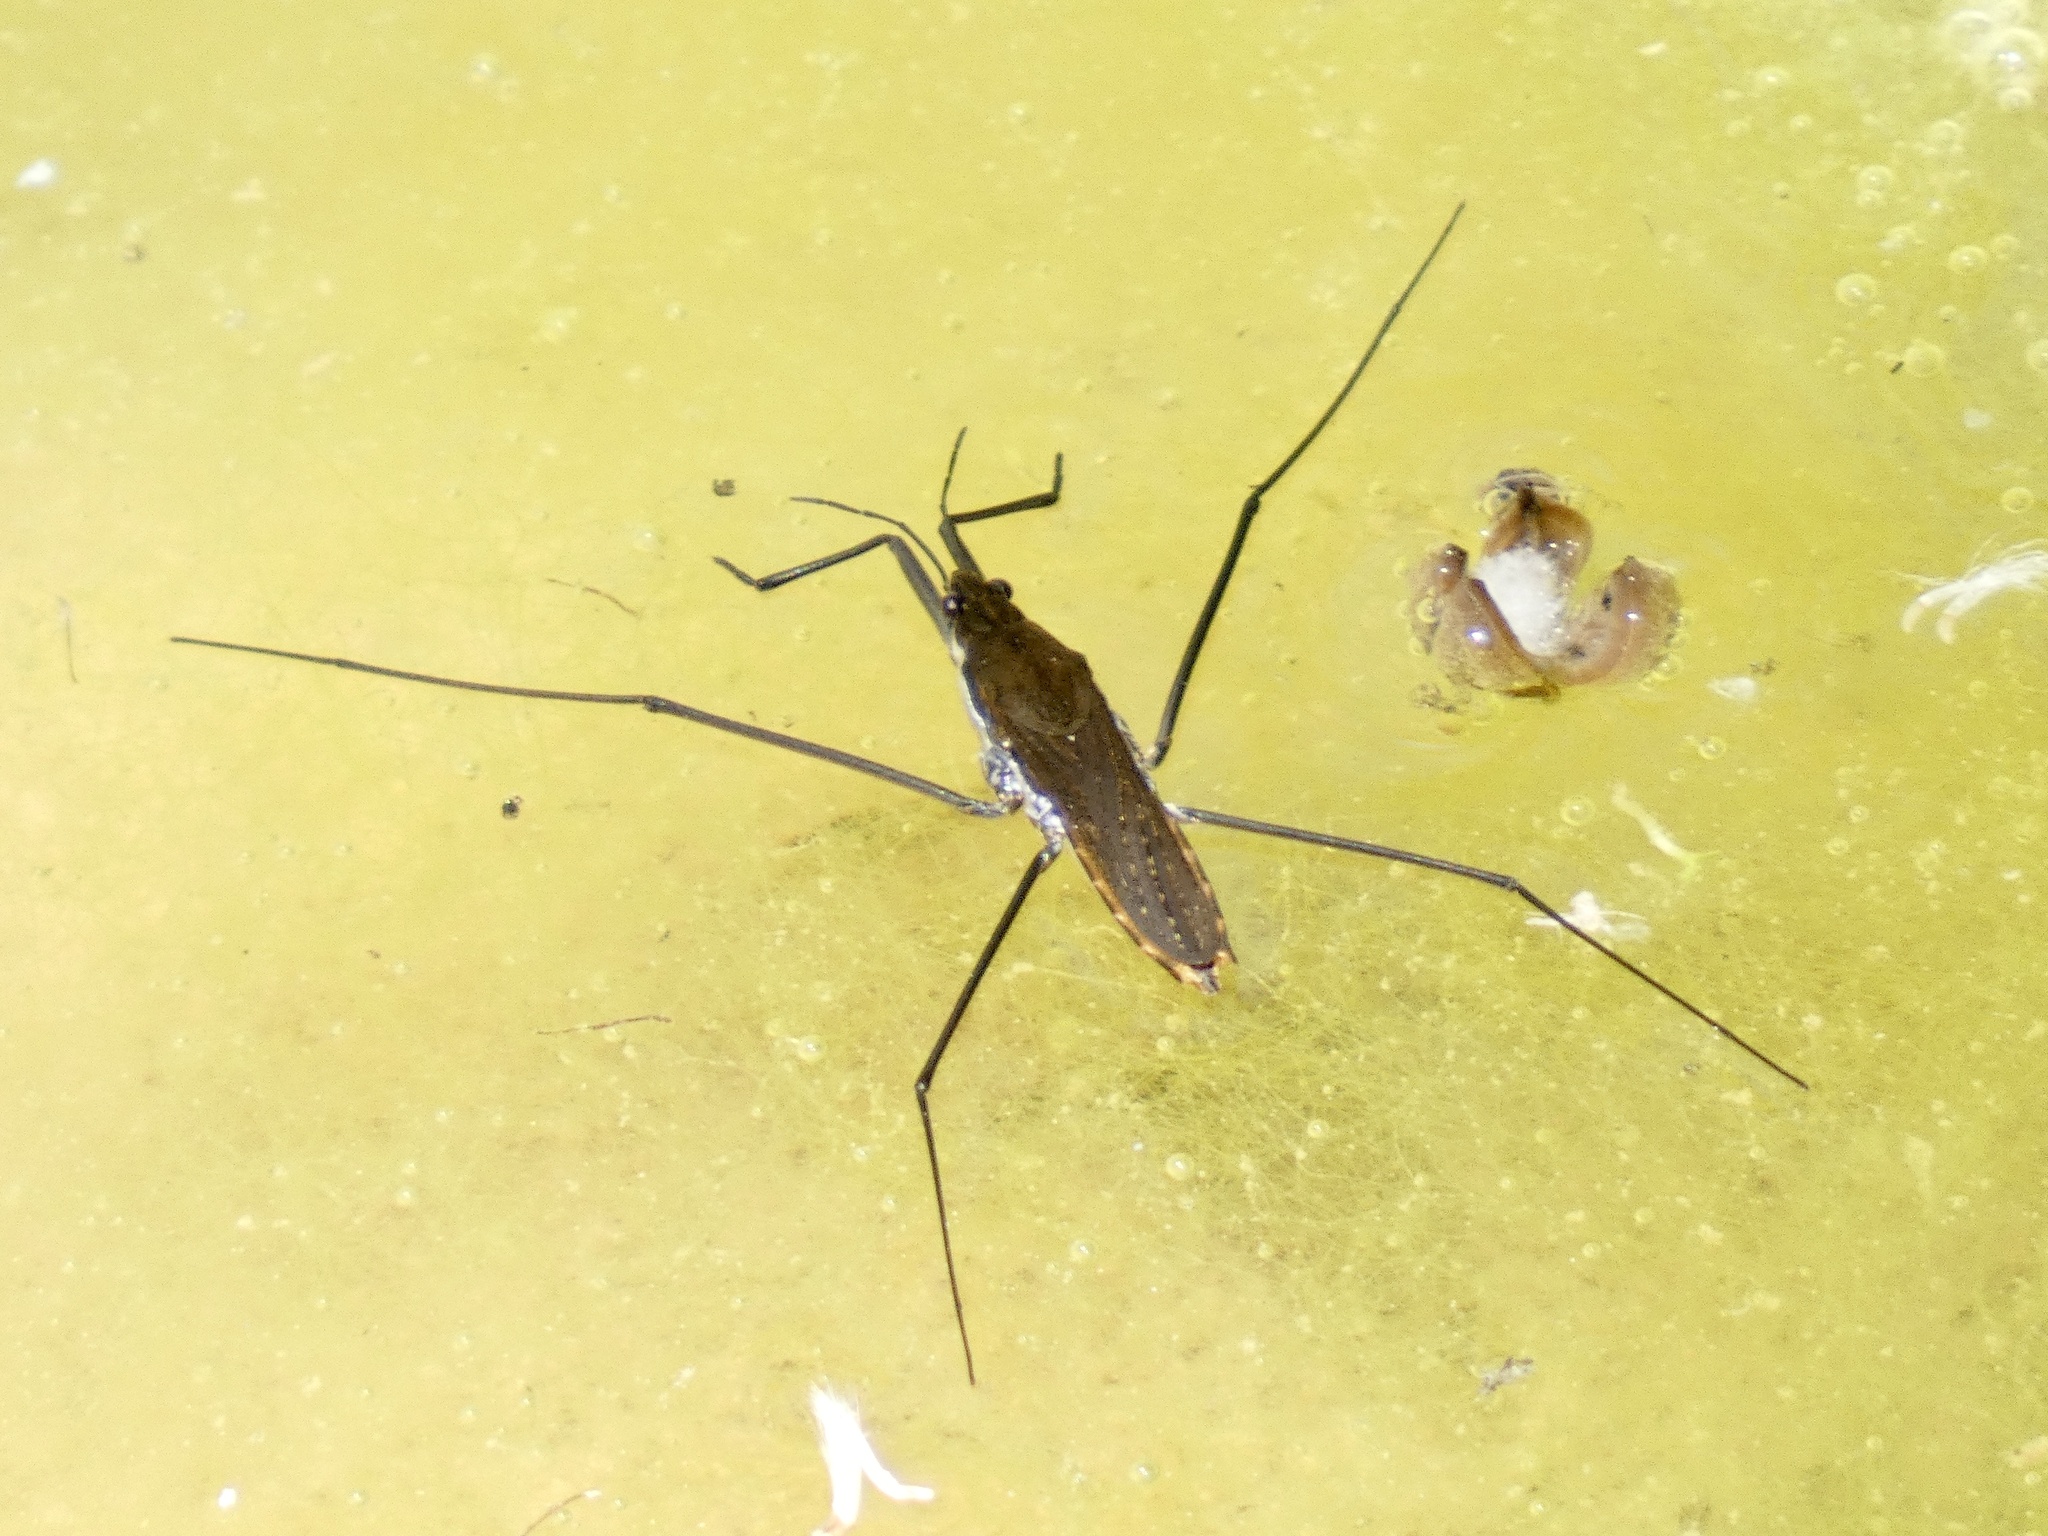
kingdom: Animalia
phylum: Arthropoda
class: Insecta
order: Hemiptera
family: Gerridae
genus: Aquarius
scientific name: Aquarius remigis
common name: Common water strider
